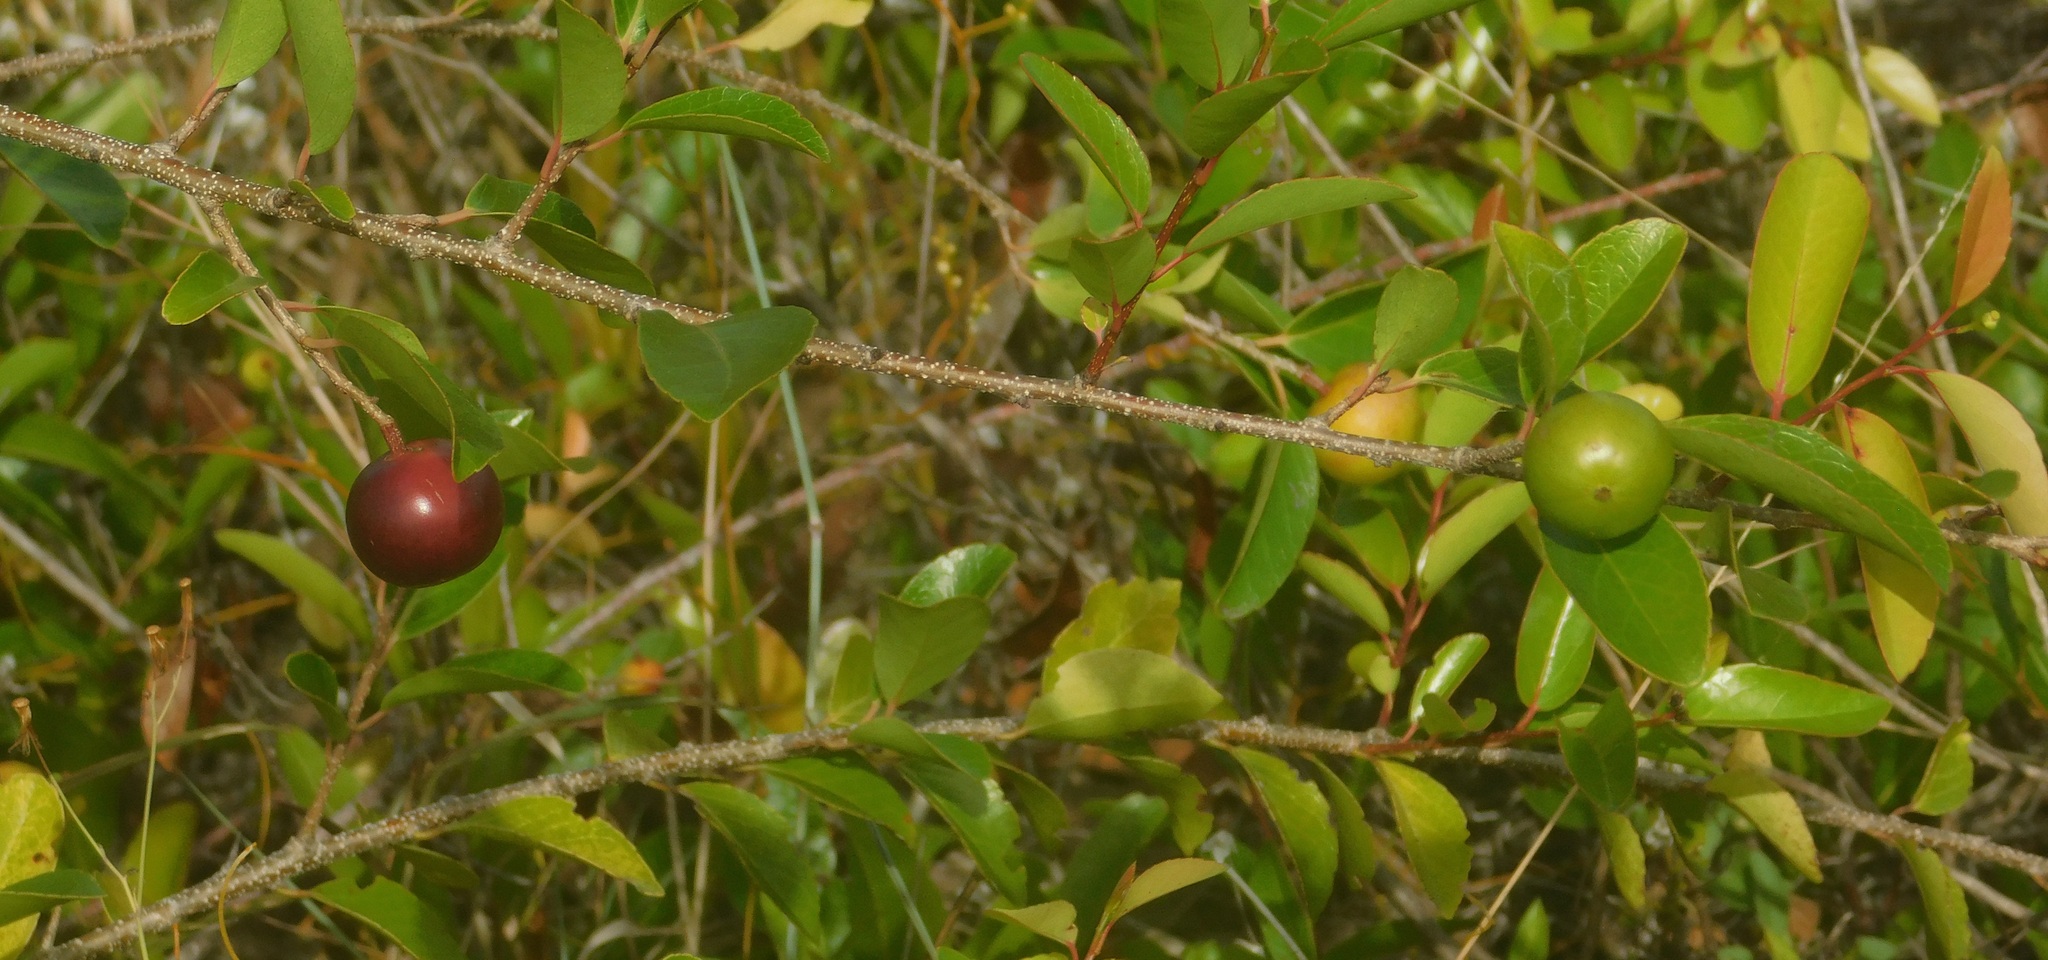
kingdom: Plantae
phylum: Tracheophyta
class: Magnoliopsida
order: Malpighiales
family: Salicaceae
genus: Flacourtia
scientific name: Flacourtia indica
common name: Governor's plum
